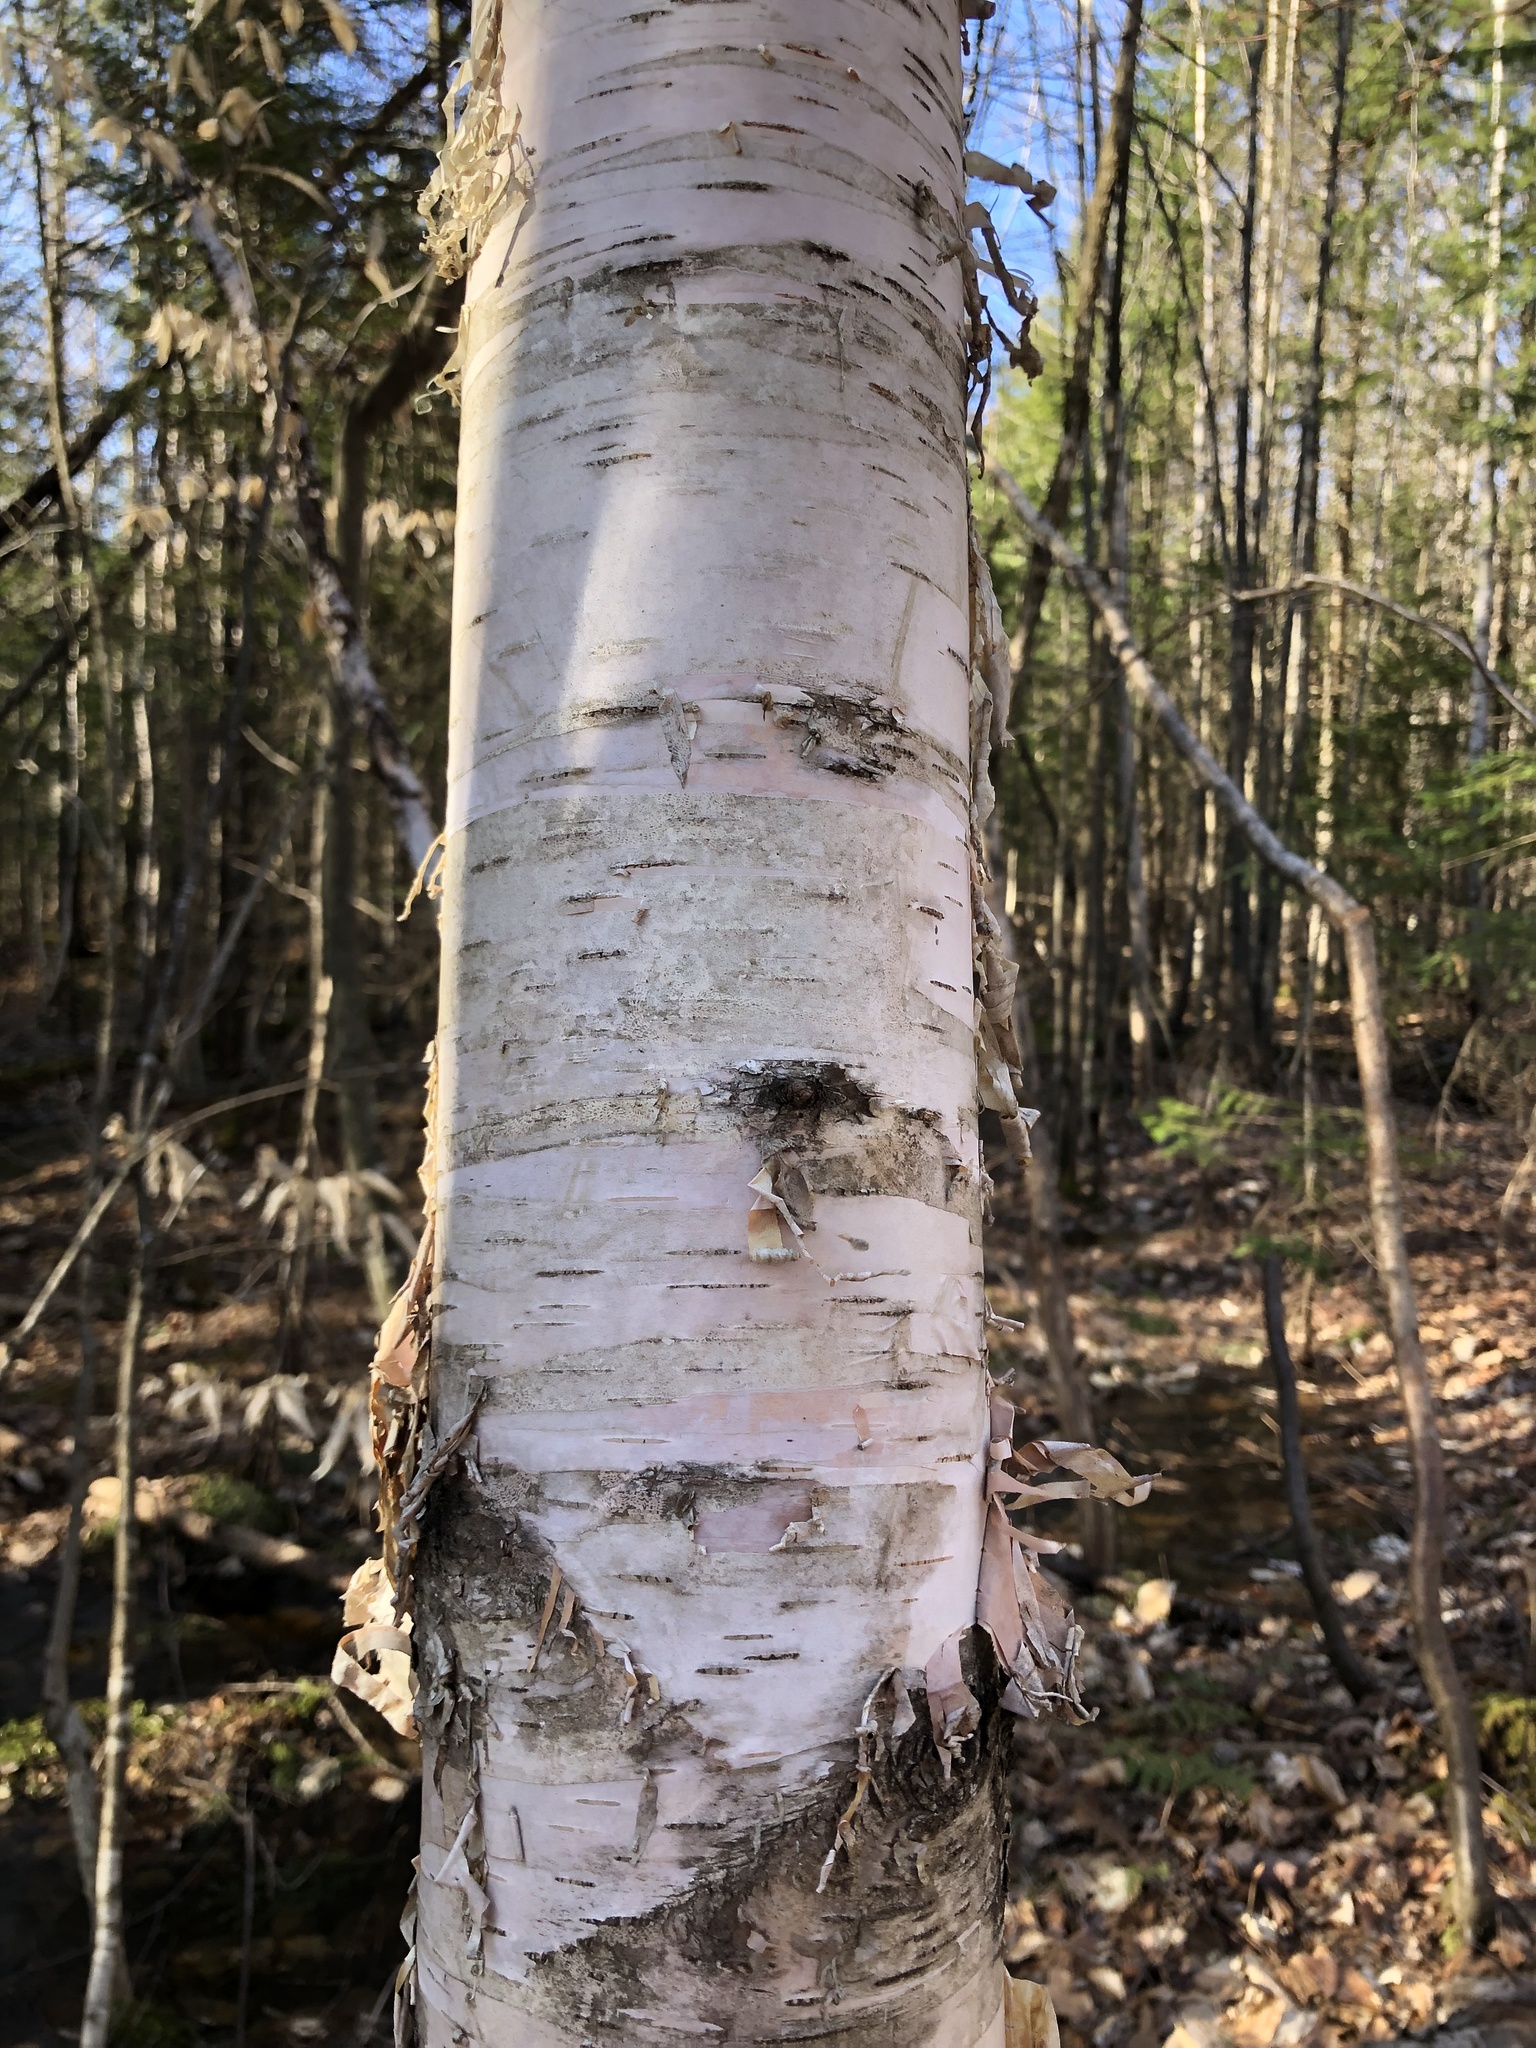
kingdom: Plantae
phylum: Tracheophyta
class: Magnoliopsida
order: Fagales
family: Betulaceae
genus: Betula
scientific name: Betula papyrifera
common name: Paper birch
